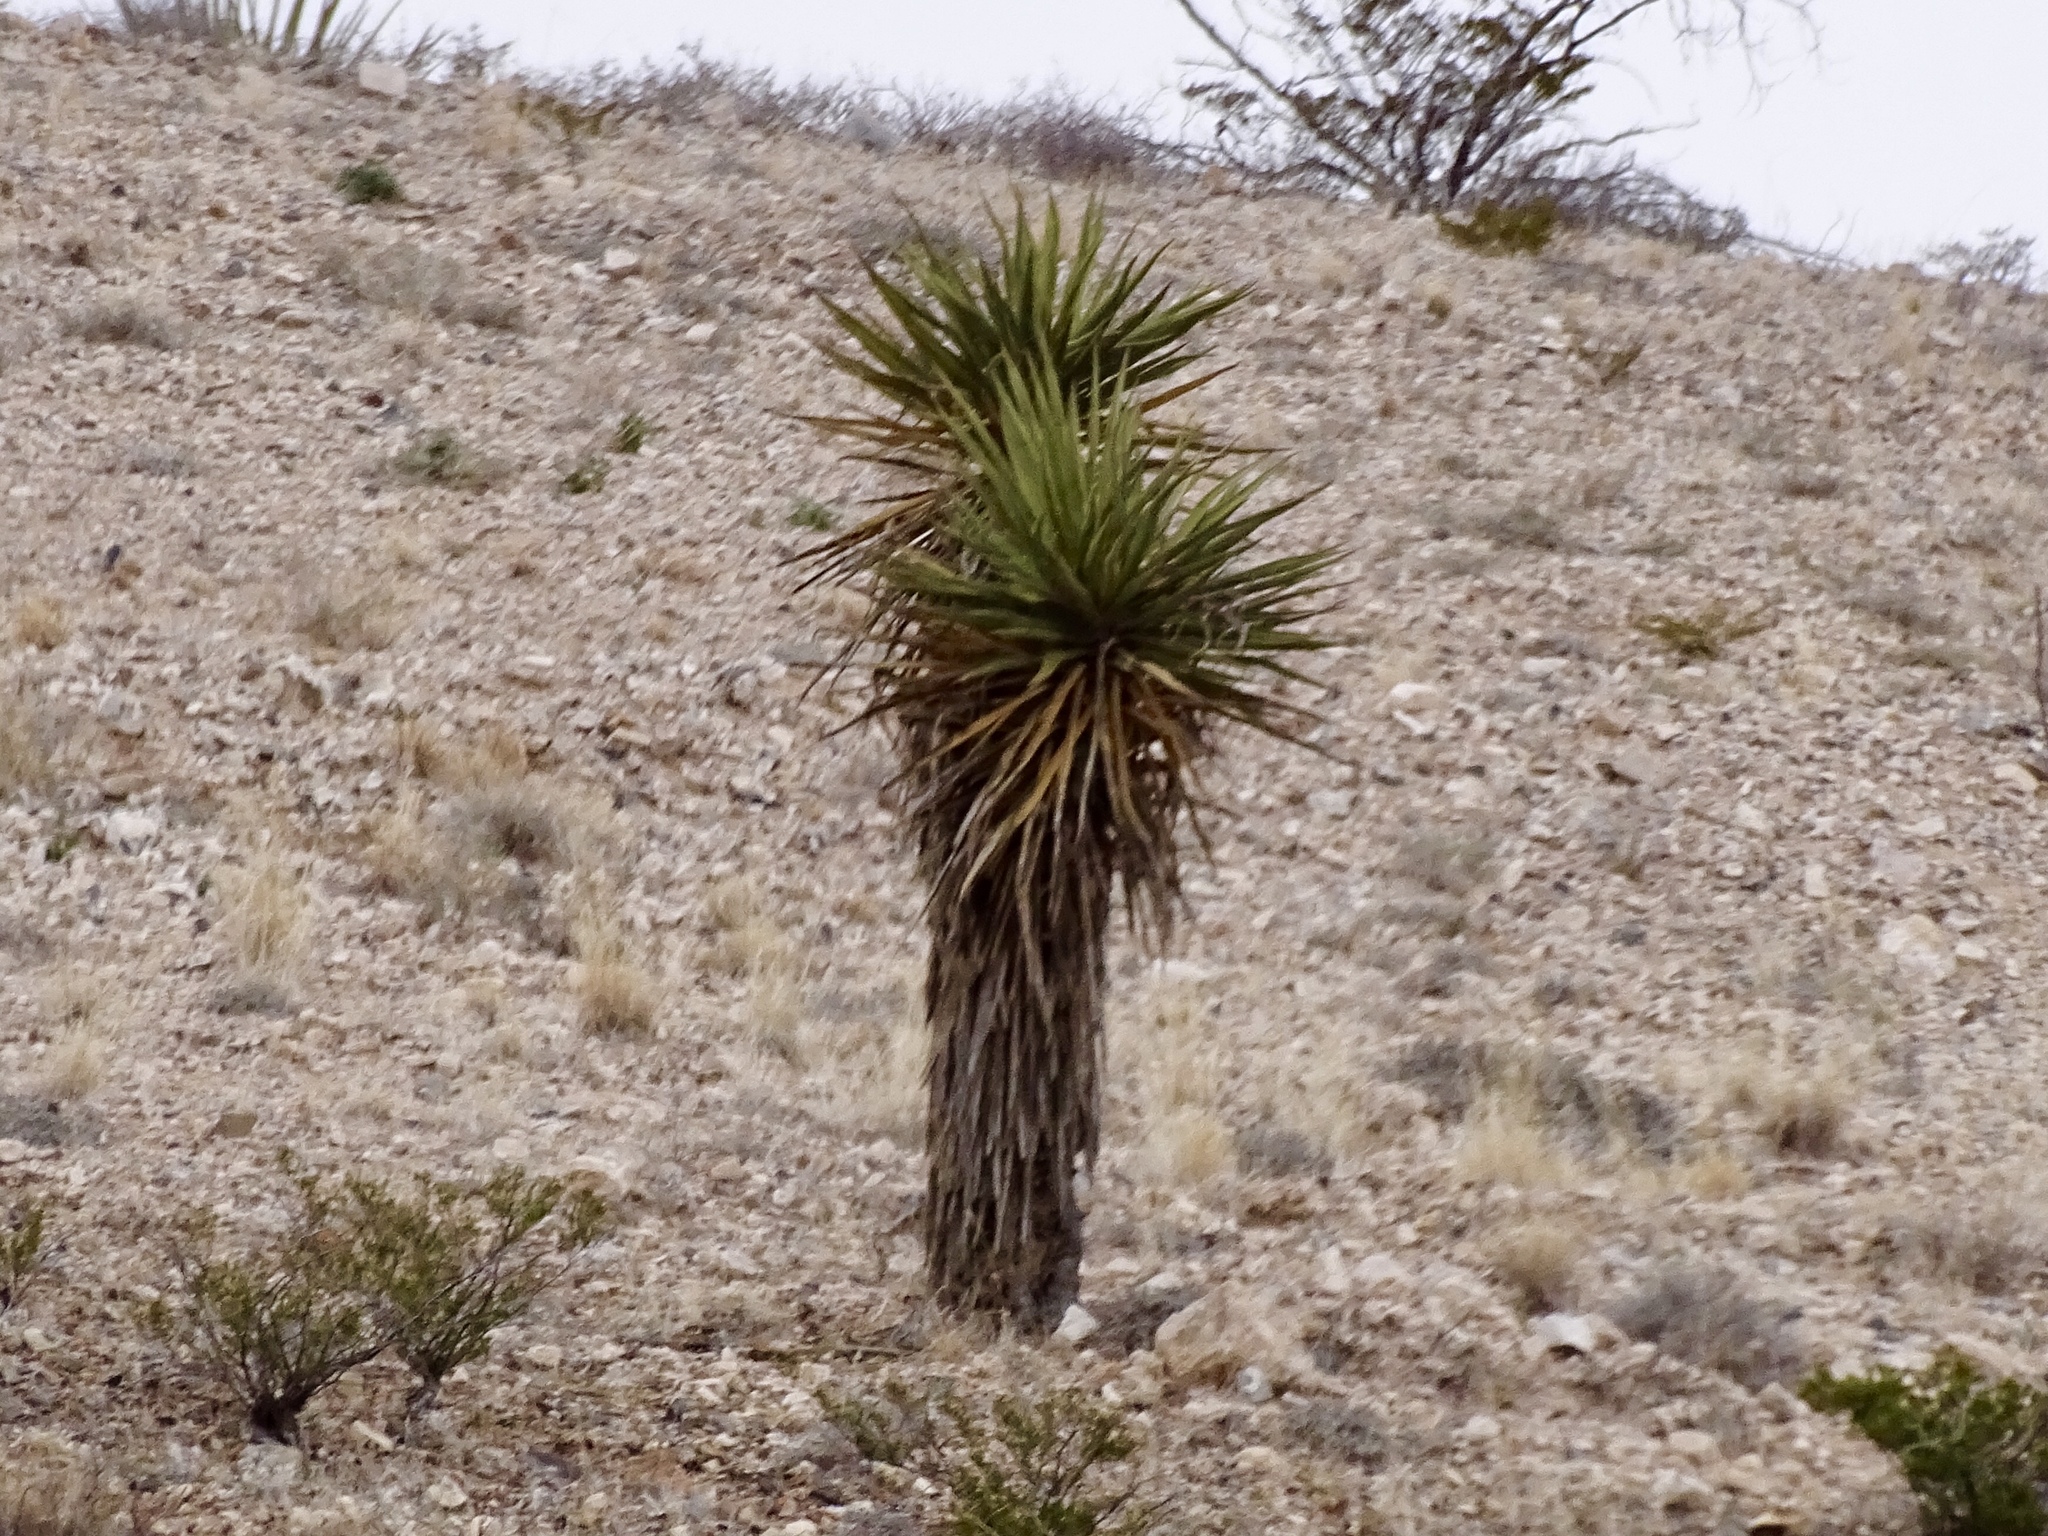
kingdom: Plantae
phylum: Tracheophyta
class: Liliopsida
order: Asparagales
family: Asparagaceae
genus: Yucca
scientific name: Yucca treculiana
